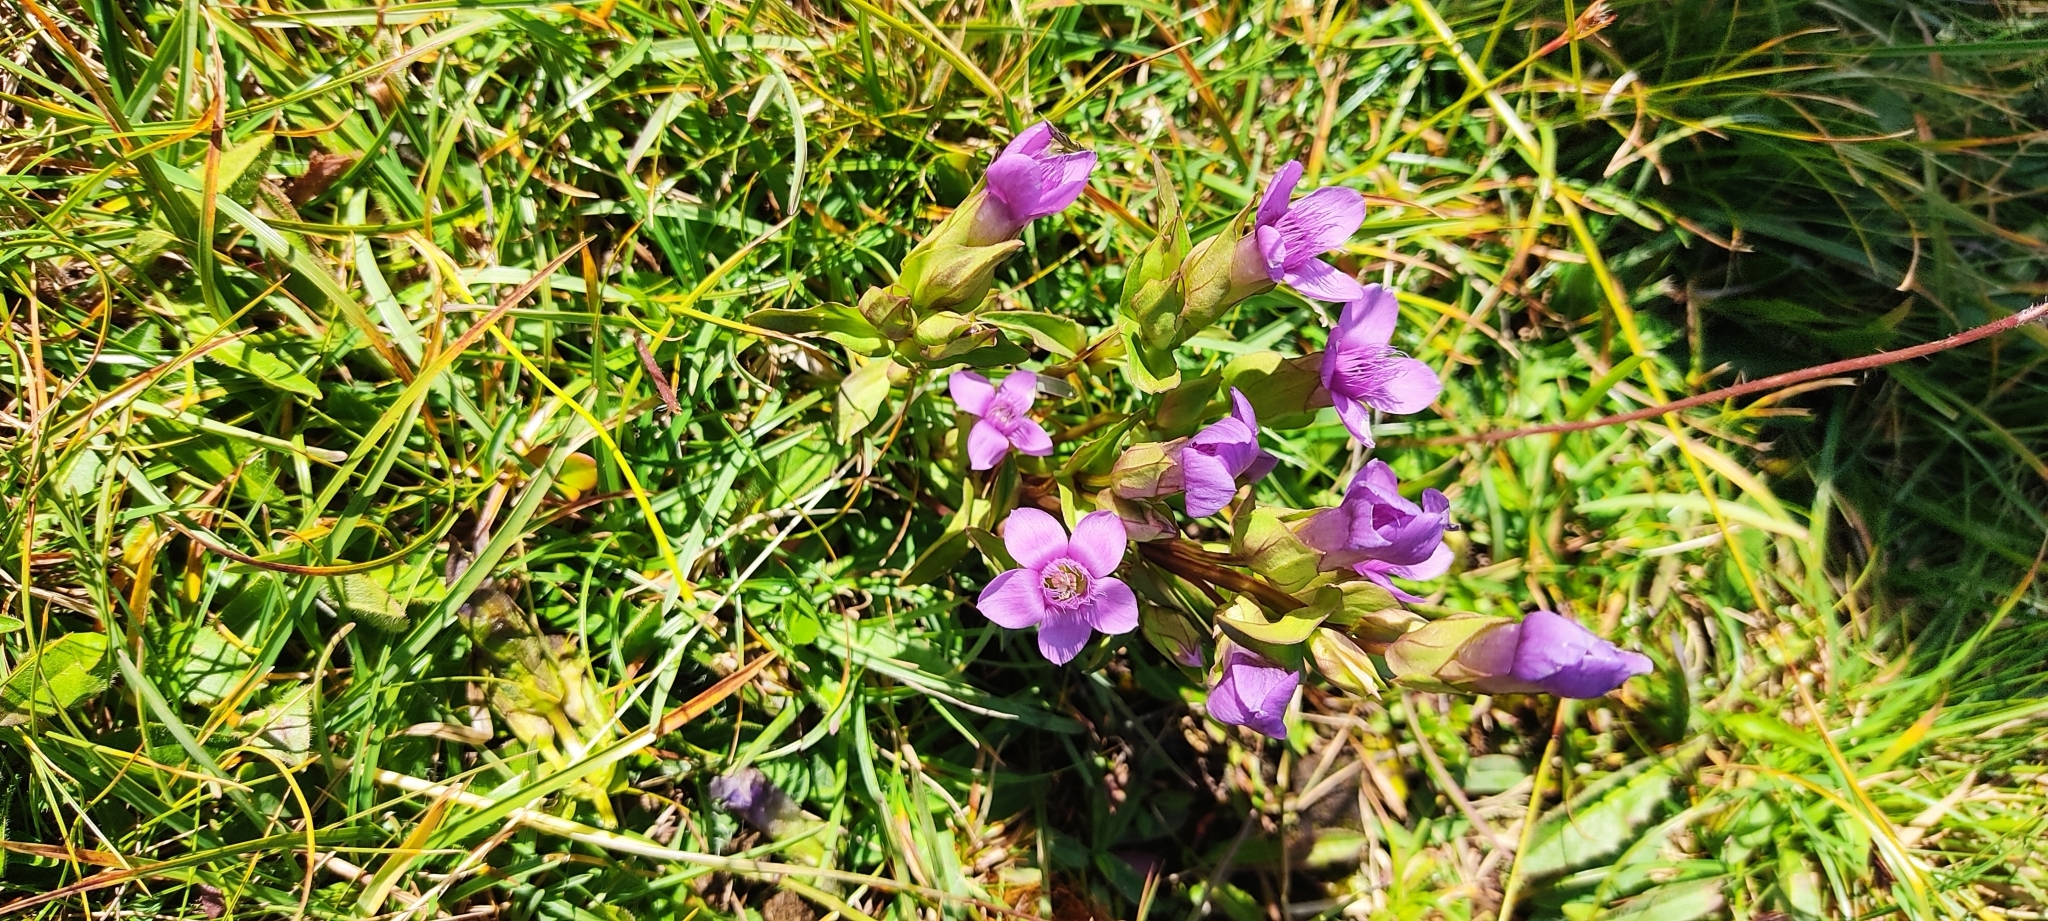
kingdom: Plantae
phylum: Tracheophyta
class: Magnoliopsida
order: Gentianales
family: Gentianaceae
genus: Gentianella
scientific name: Gentianella campestris
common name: Field gentian
